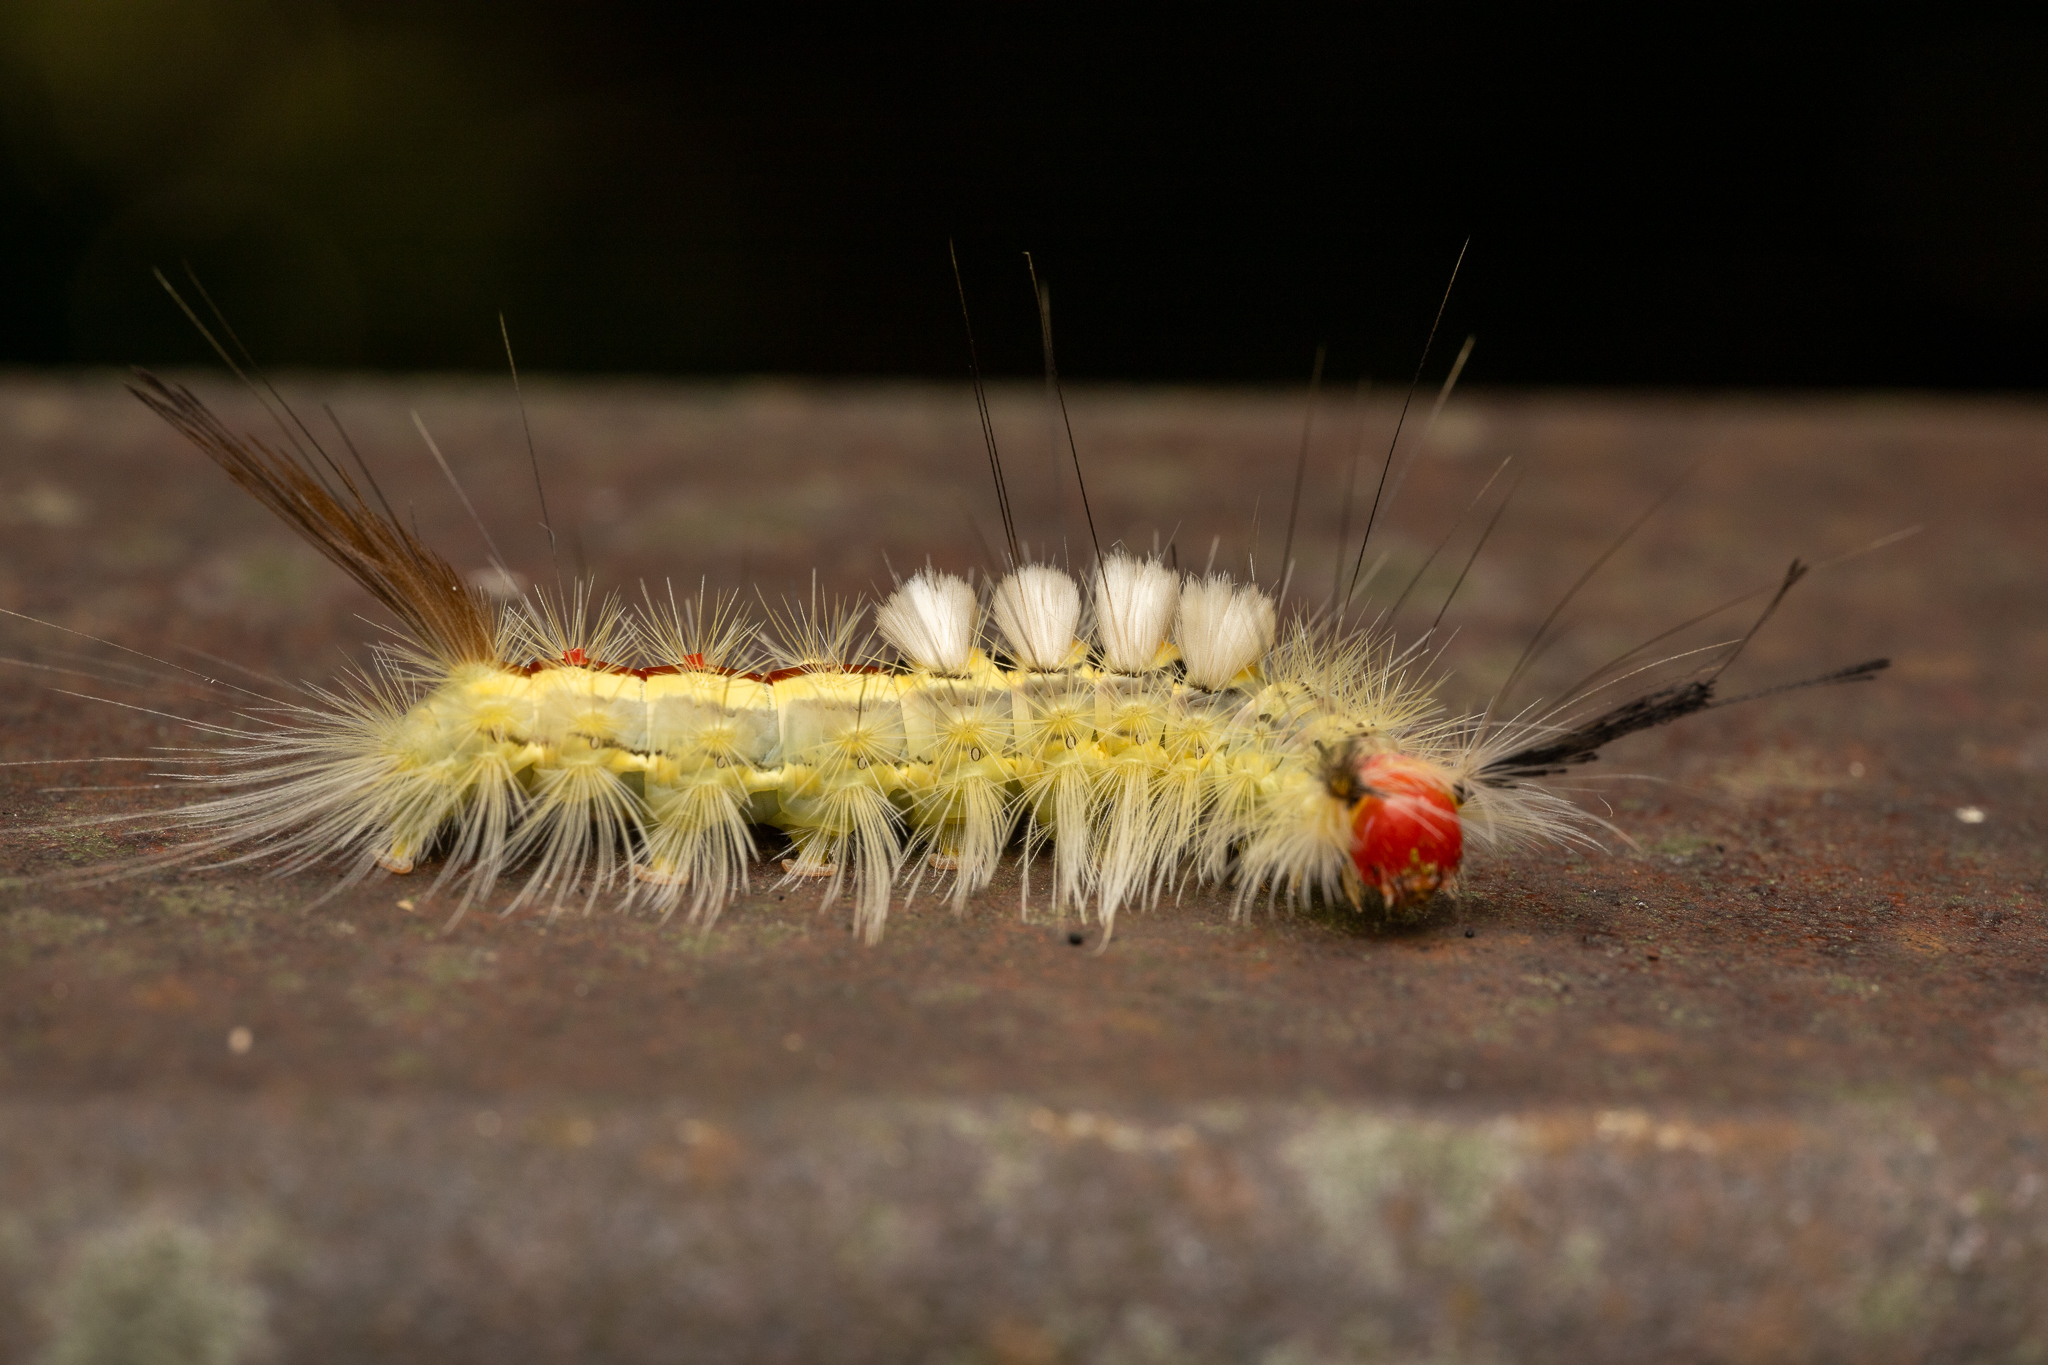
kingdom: Animalia
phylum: Arthropoda
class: Insecta
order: Lepidoptera
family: Erebidae
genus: Orgyia
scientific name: Orgyia leucostigma
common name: White-marked tussock moth
